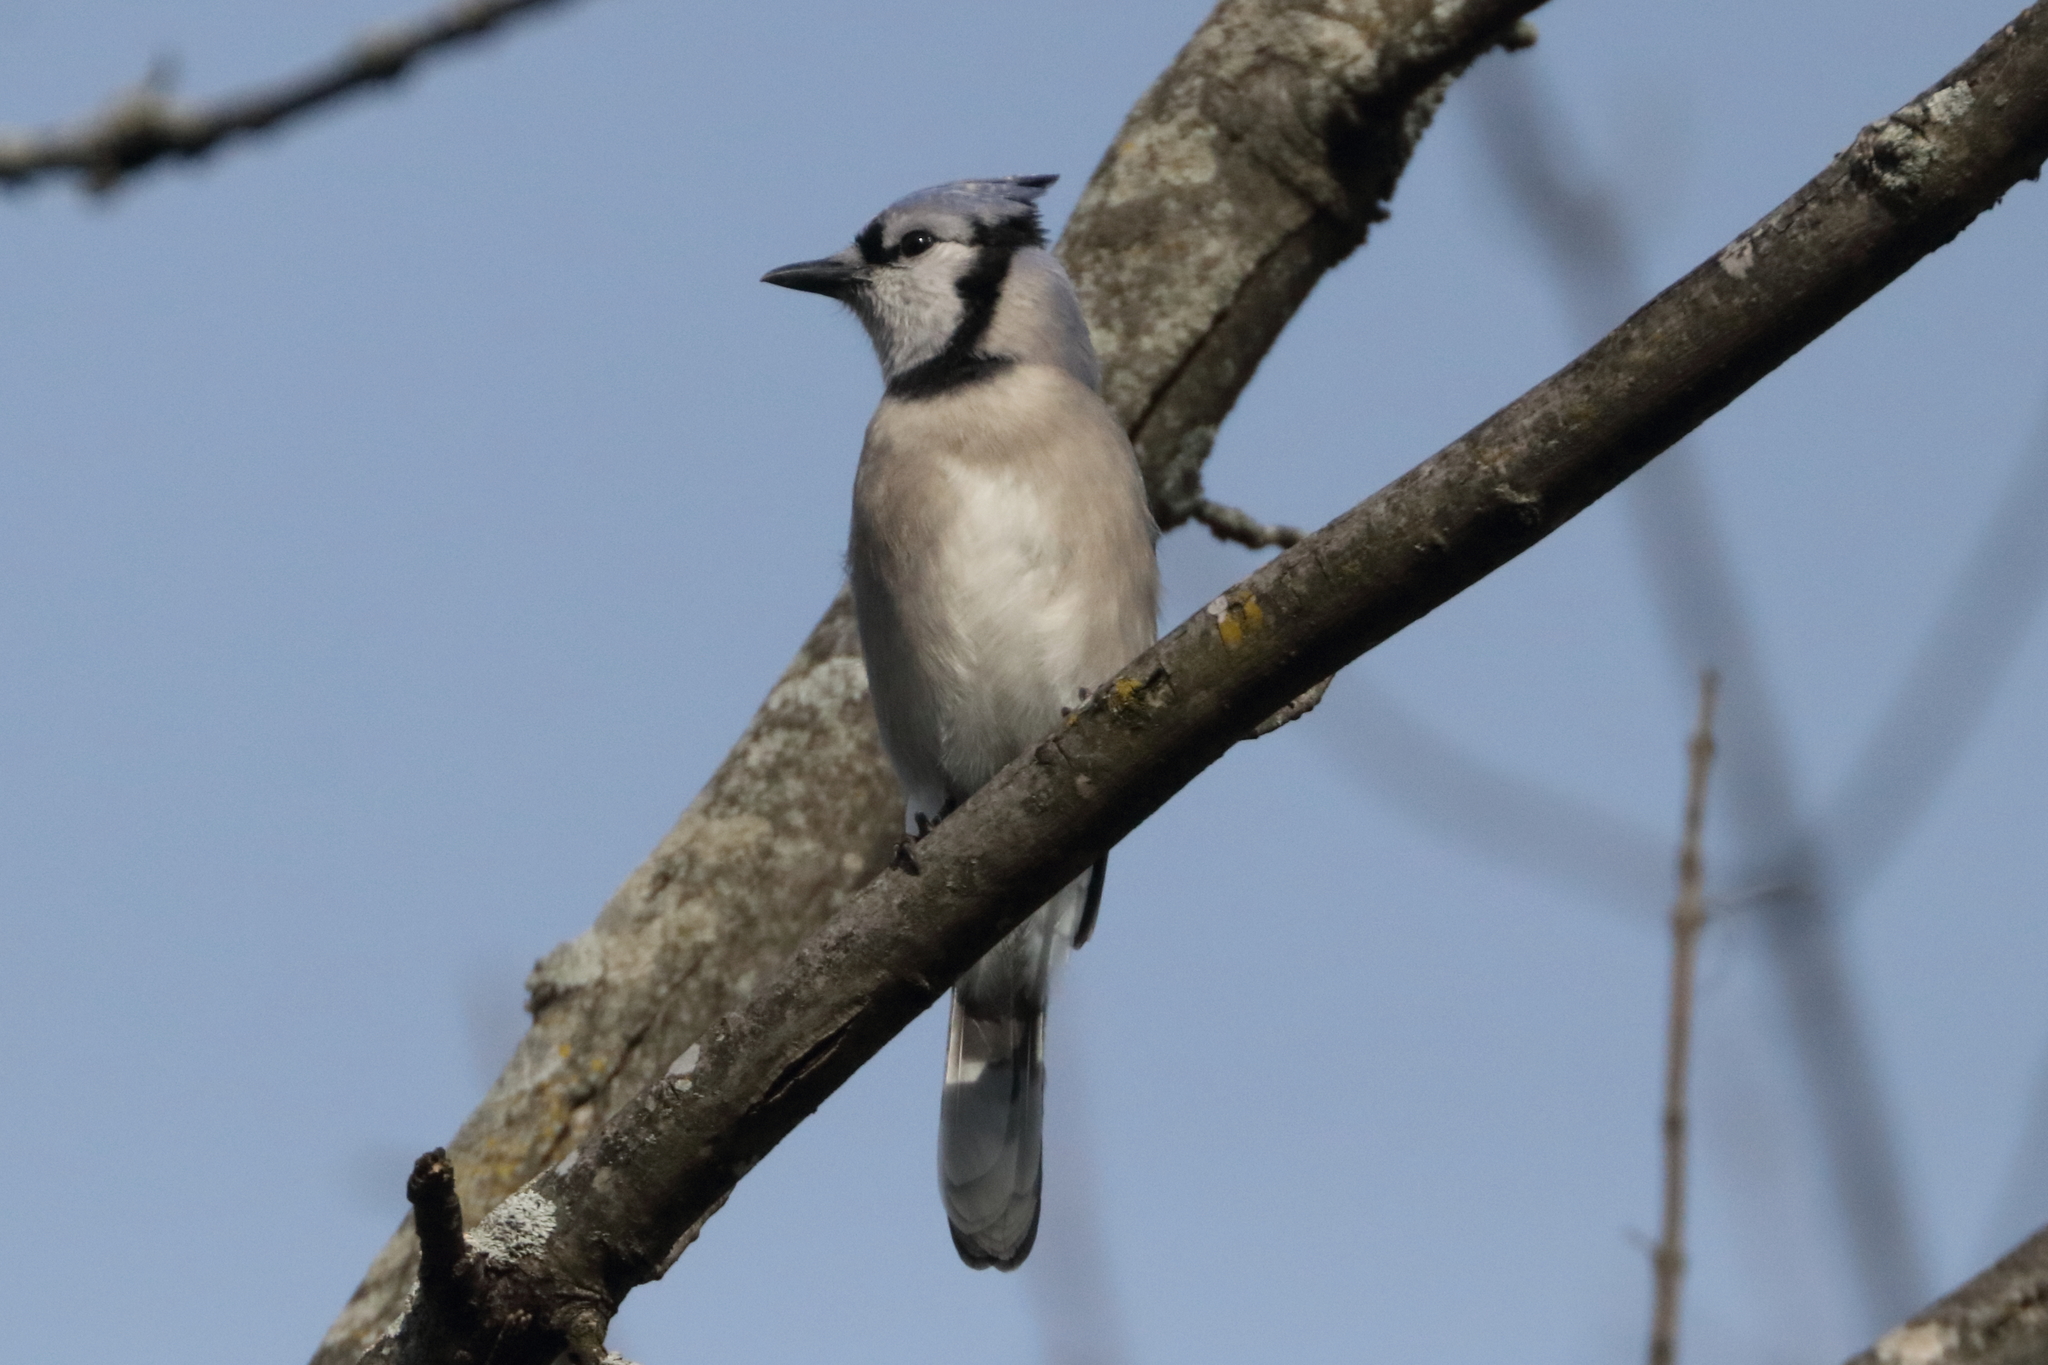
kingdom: Animalia
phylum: Chordata
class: Aves
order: Passeriformes
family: Corvidae
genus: Cyanocitta
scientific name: Cyanocitta cristata
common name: Blue jay
